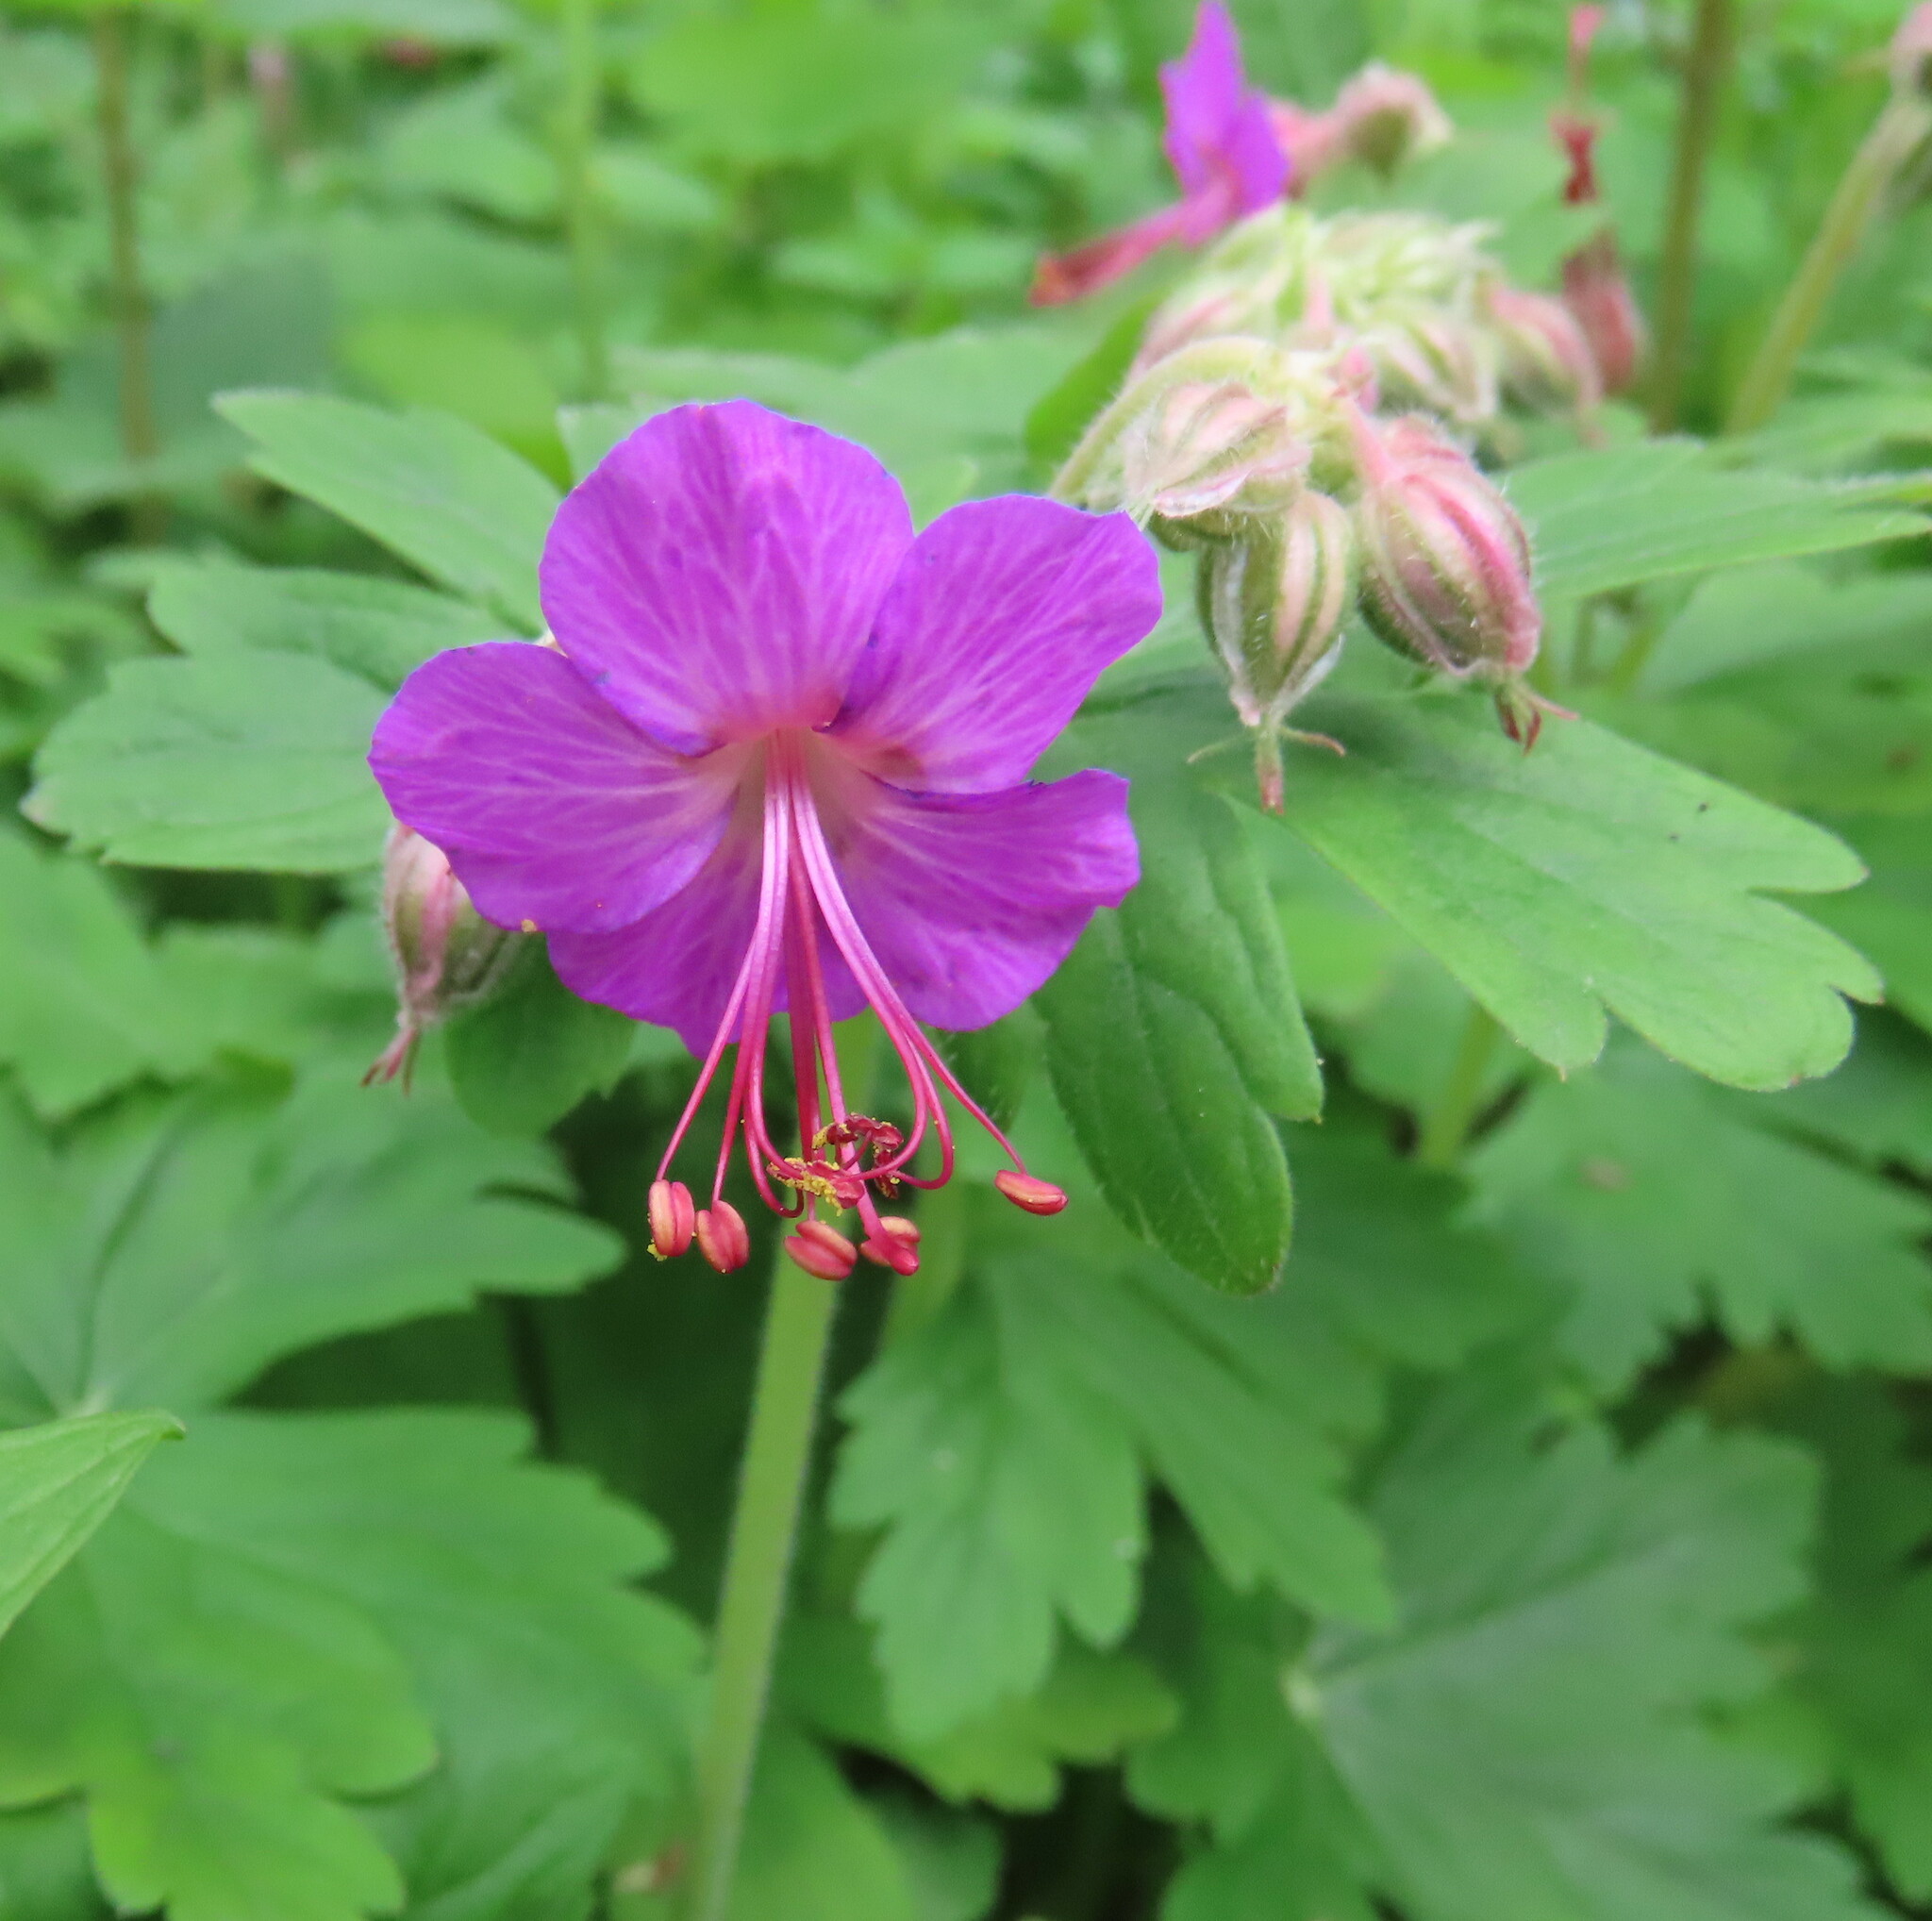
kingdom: Plantae
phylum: Tracheophyta
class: Magnoliopsida
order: Geraniales
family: Geraniaceae
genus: Geranium
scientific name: Geranium macrorrhizum
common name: Rock crane's-bill
